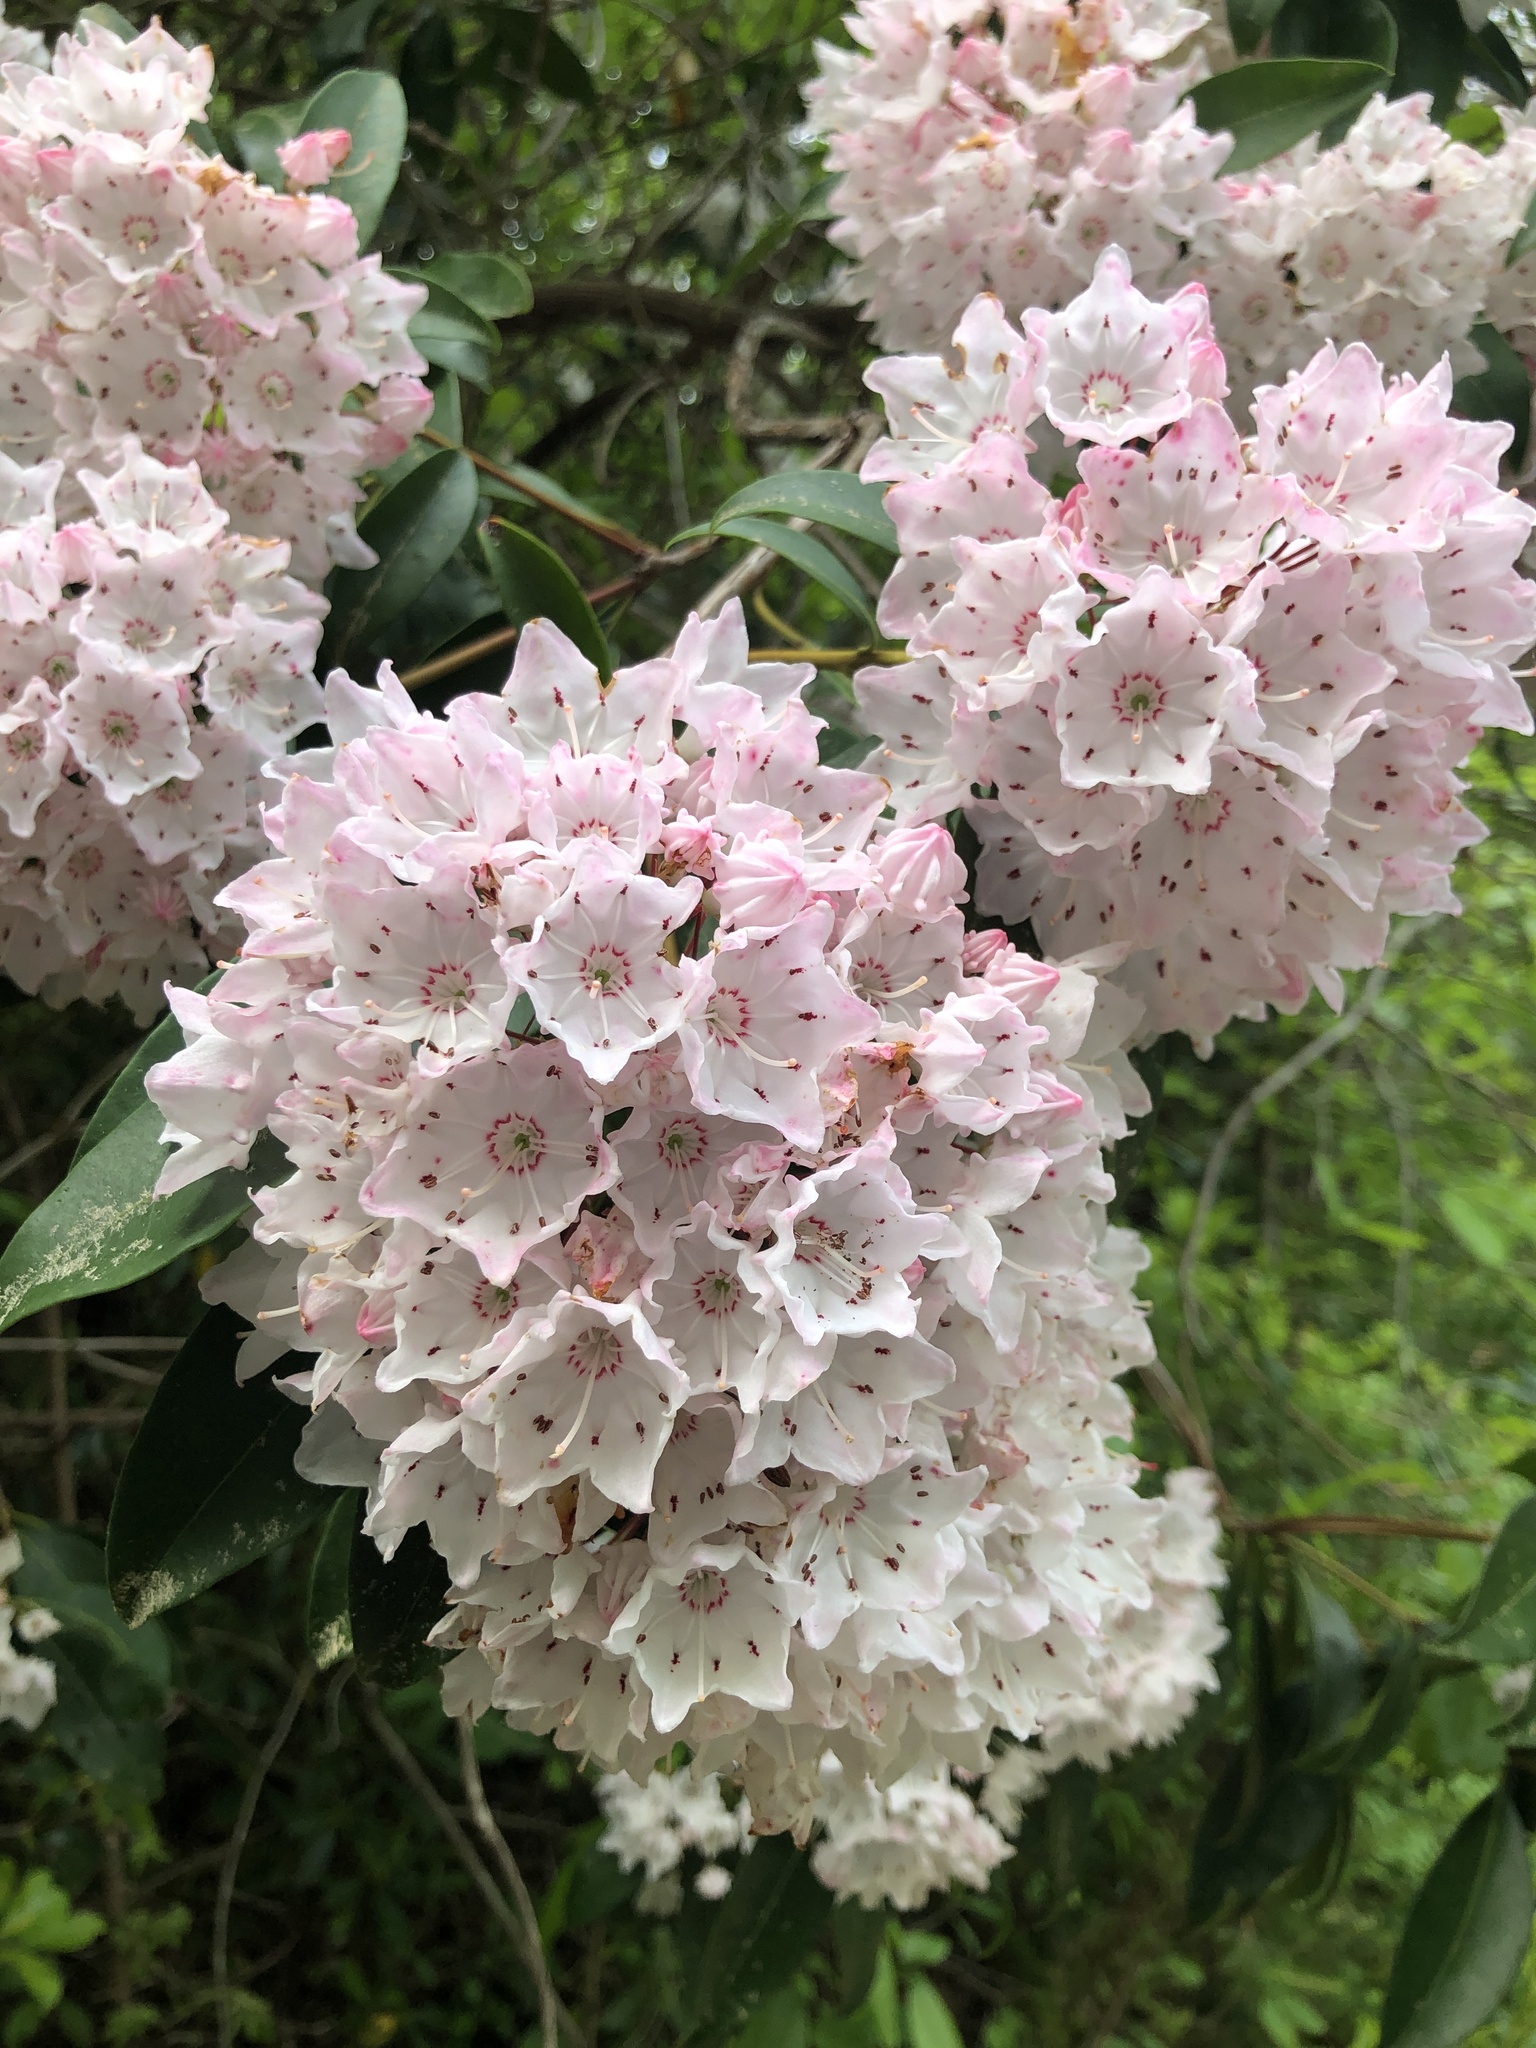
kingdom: Plantae
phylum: Tracheophyta
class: Magnoliopsida
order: Ericales
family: Ericaceae
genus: Kalmia
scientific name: Kalmia latifolia
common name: Mountain-laurel
